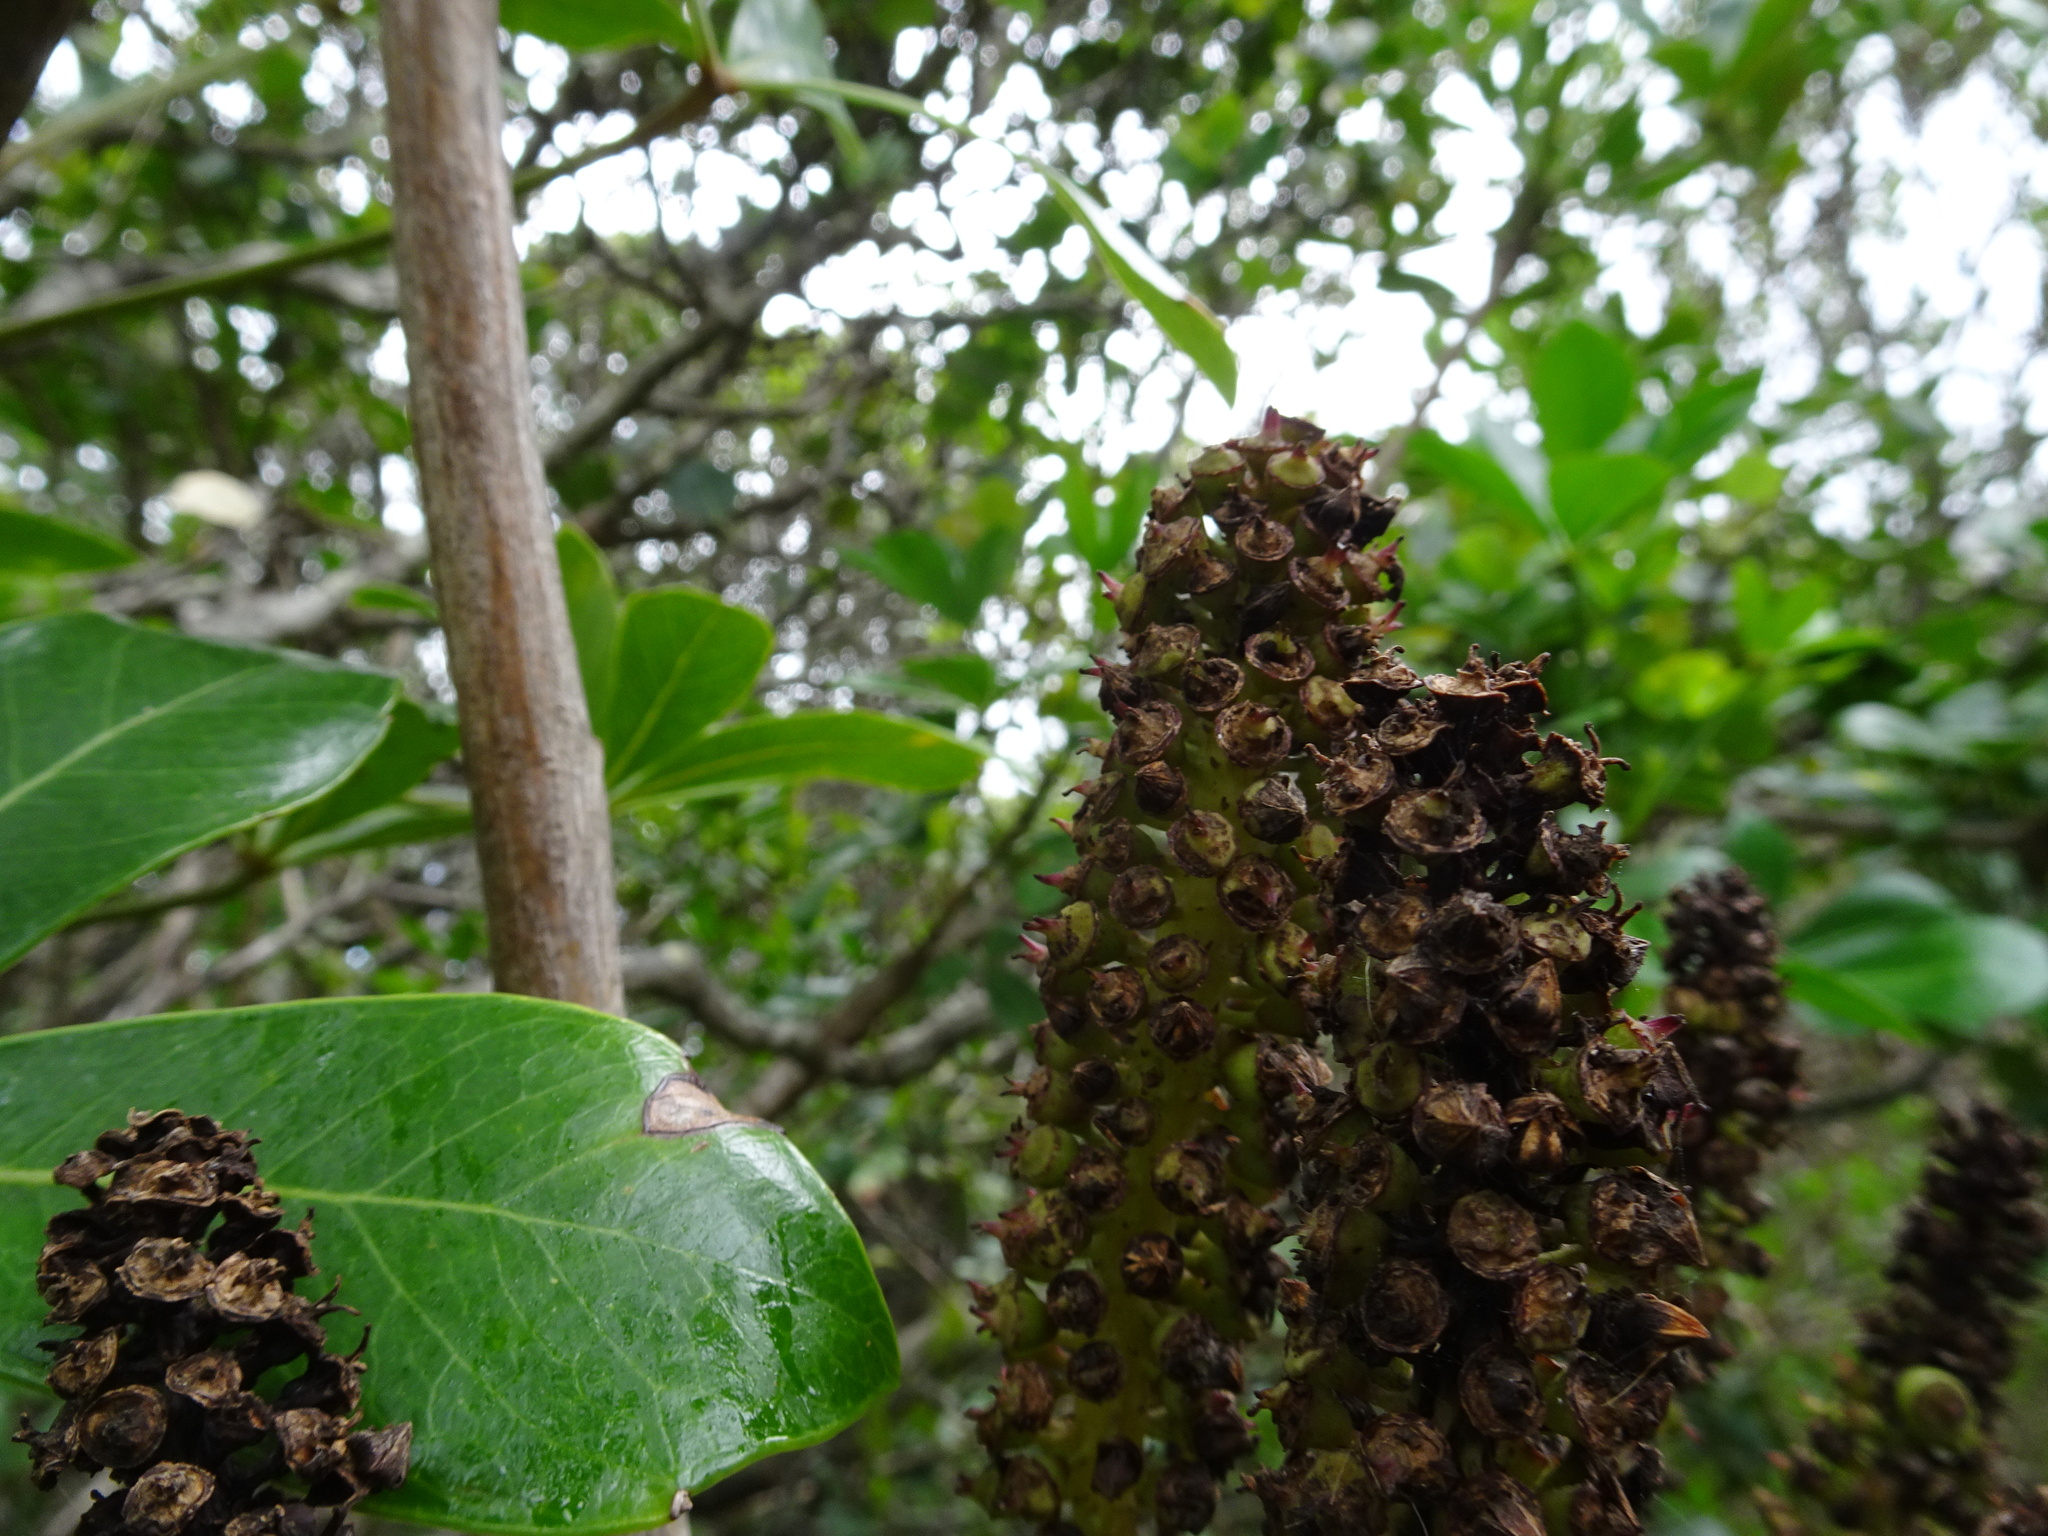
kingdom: Plantae
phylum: Tracheophyta
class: Magnoliopsida
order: Apiales
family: Araliaceae
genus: Cussonia
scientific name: Cussonia thyrsiflora
